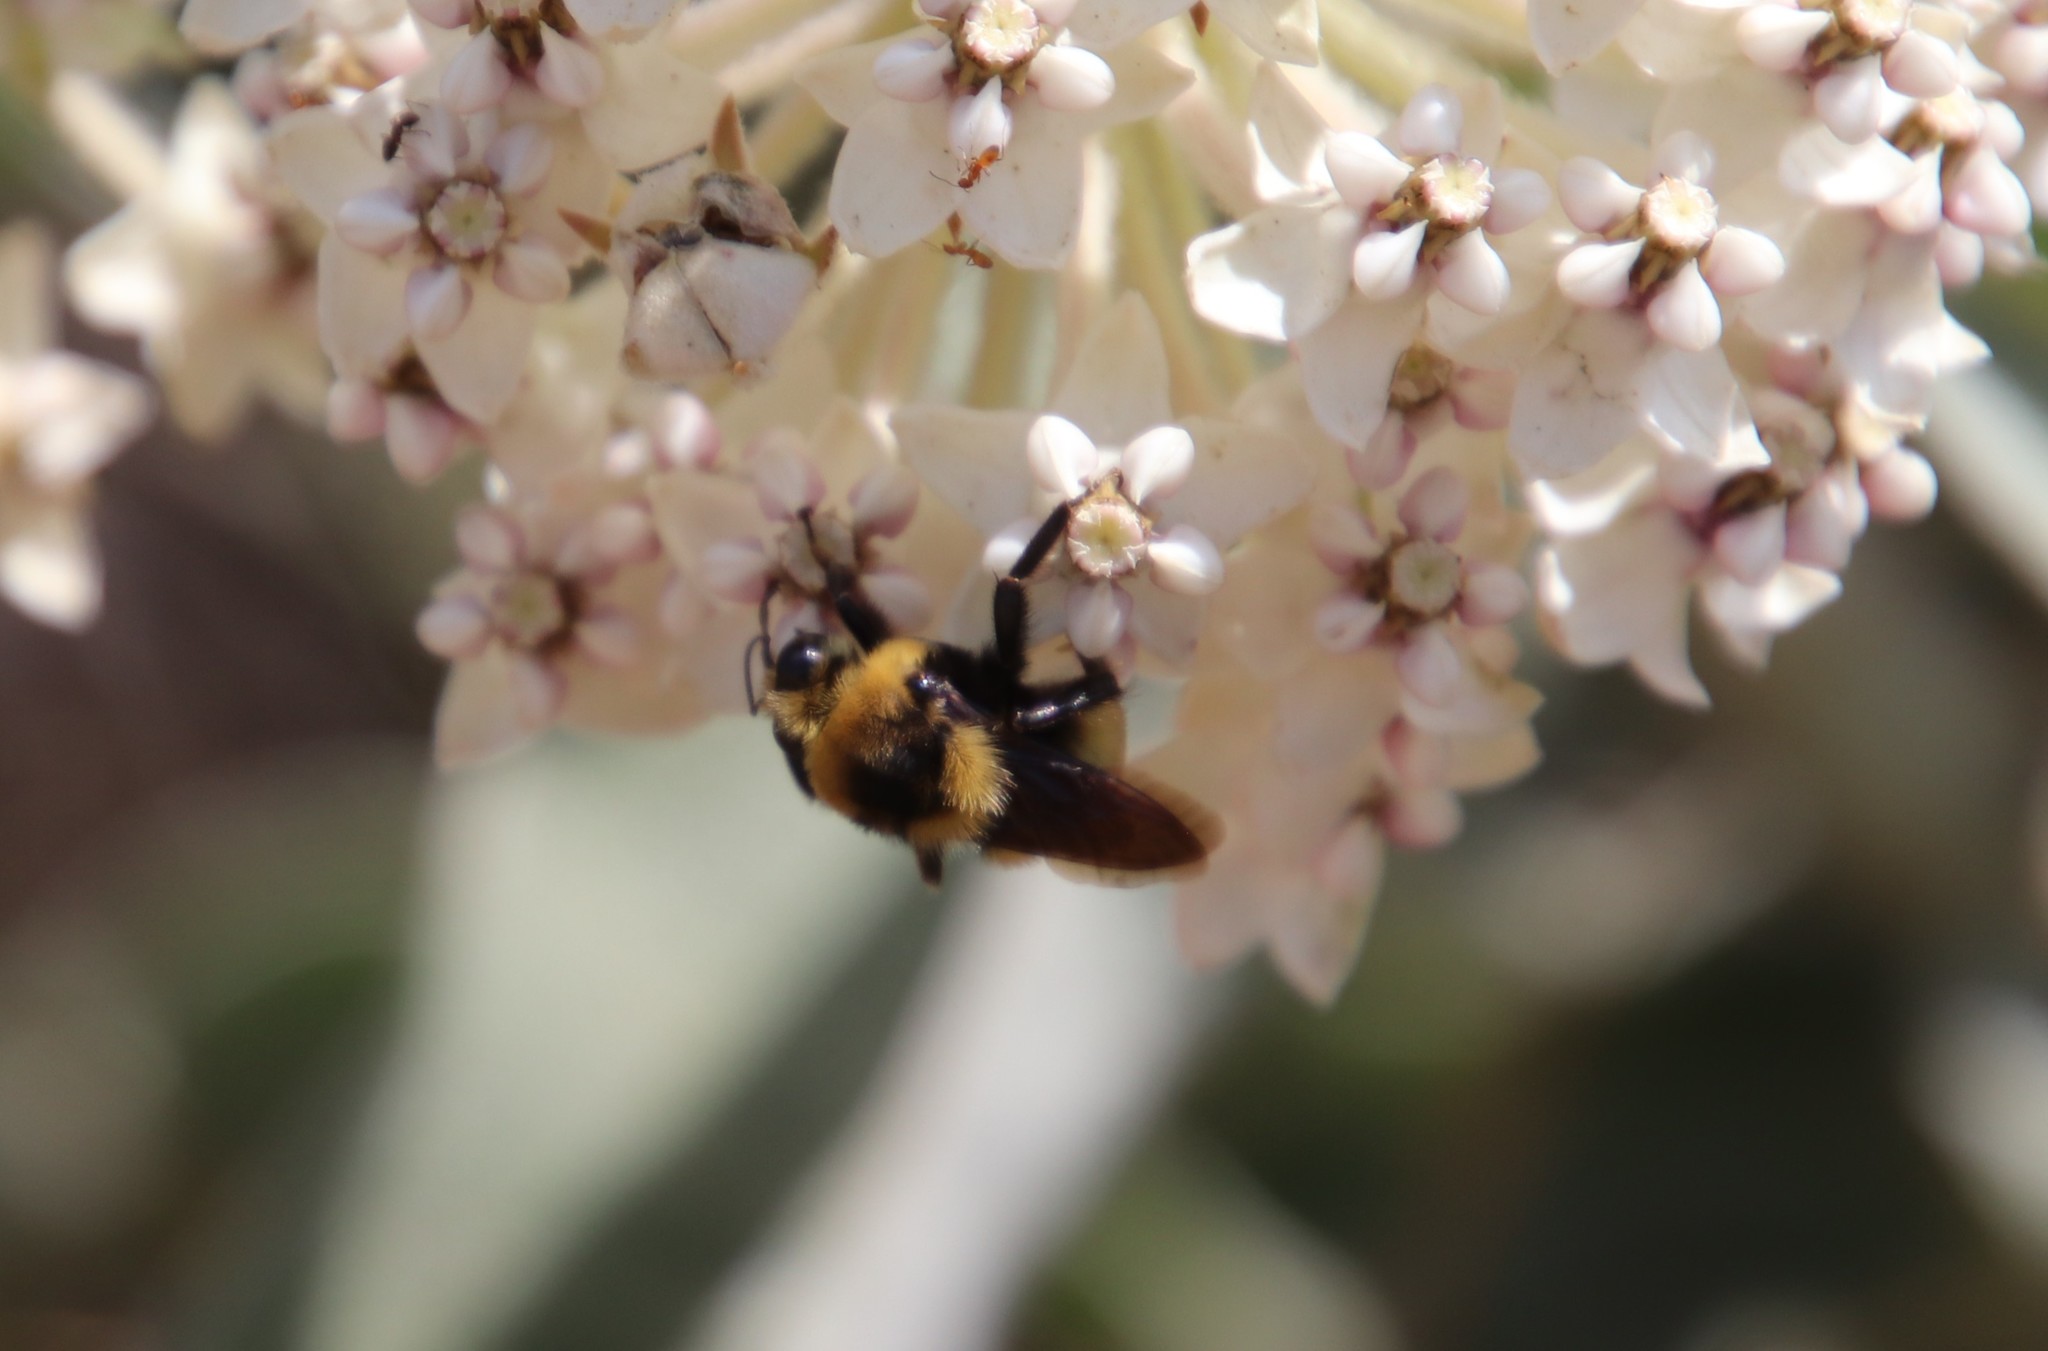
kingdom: Animalia
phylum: Arthropoda
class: Insecta
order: Hymenoptera
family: Apidae
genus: Bombus
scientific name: Bombus crotchii
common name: Crotch bumble bee
